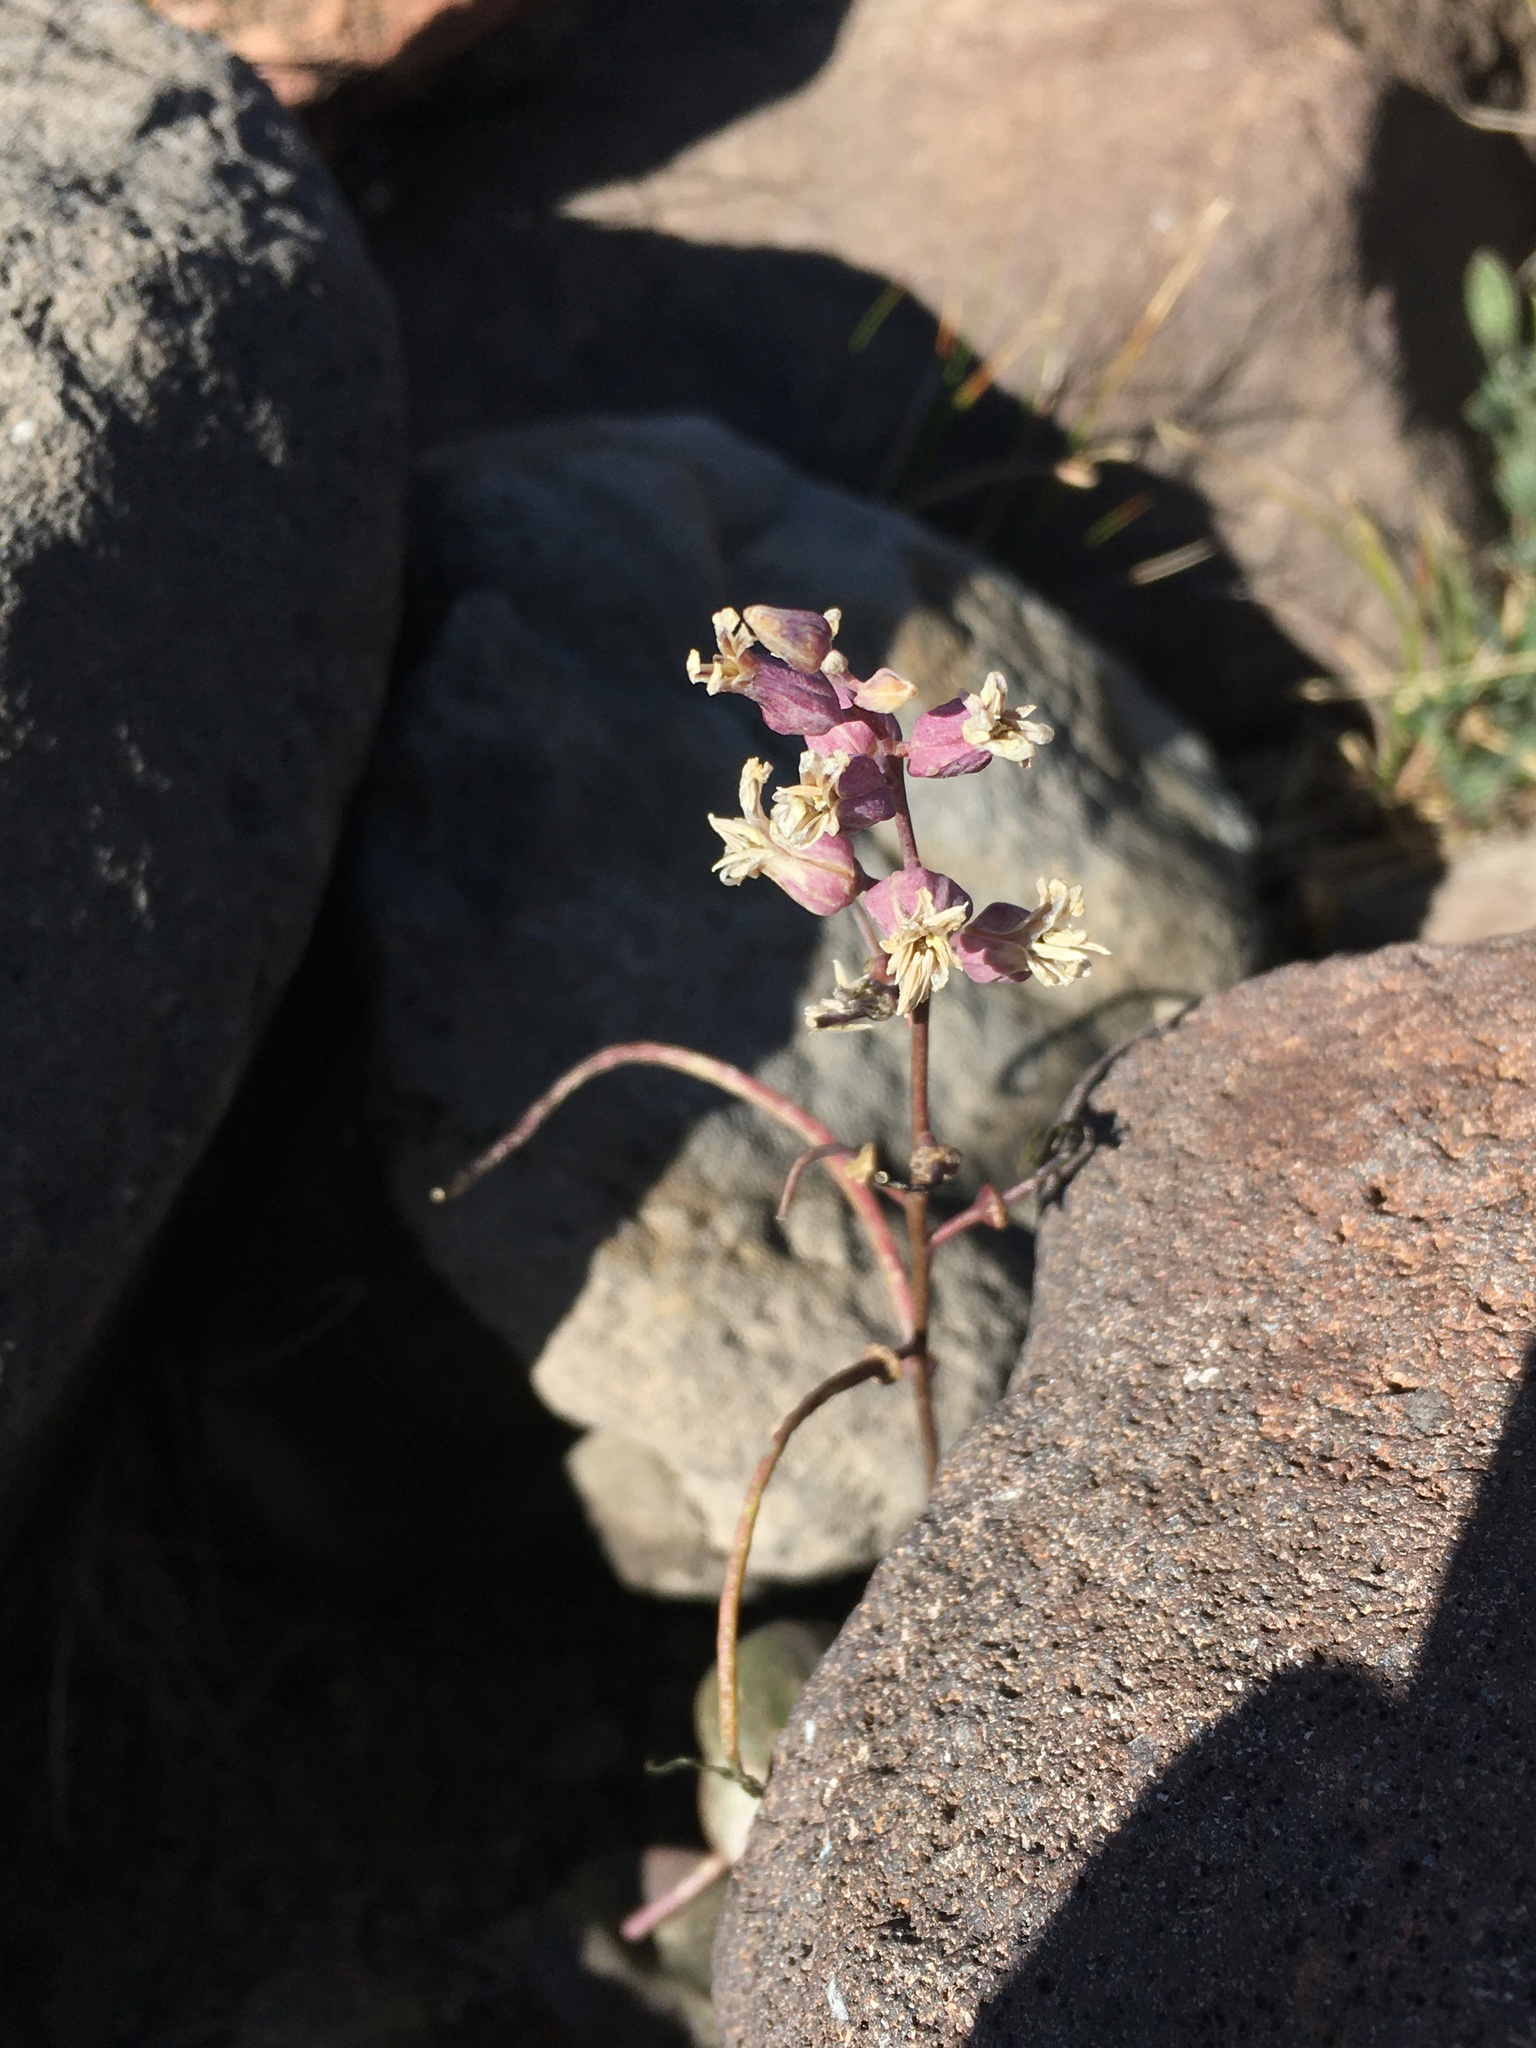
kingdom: Plantae
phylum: Tracheophyta
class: Magnoliopsida
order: Brassicales
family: Brassicaceae
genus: Streptanthus
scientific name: Streptanthus tortuosus
